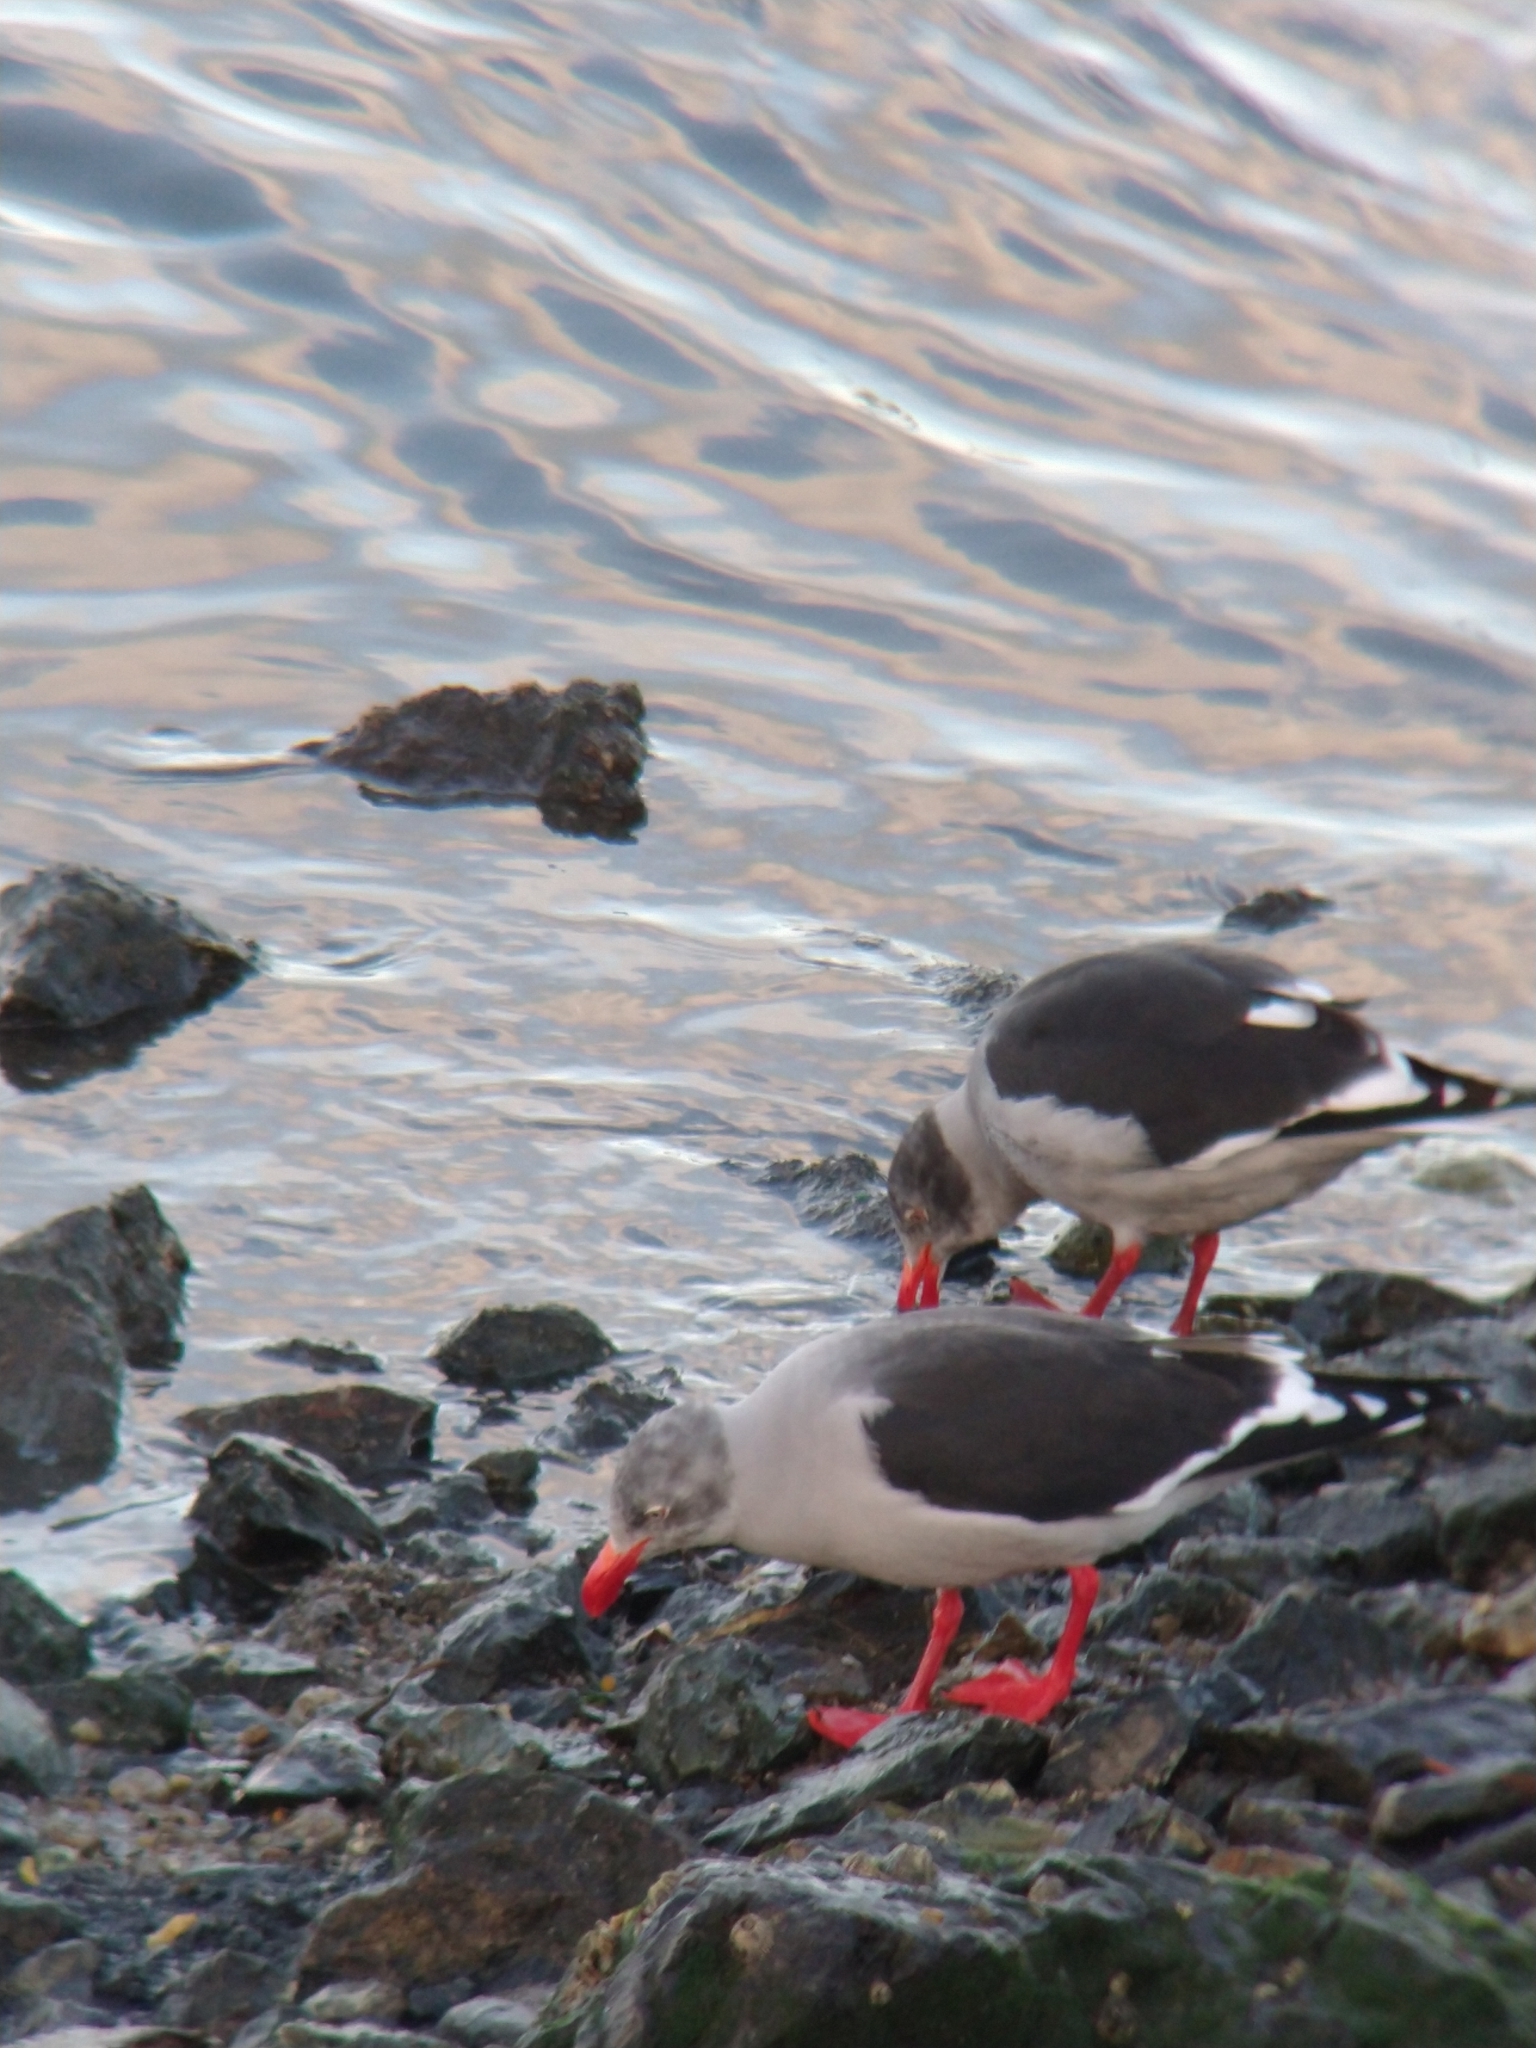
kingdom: Animalia
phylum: Chordata
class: Aves
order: Charadriiformes
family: Laridae
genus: Leucophaeus
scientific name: Leucophaeus scoresbii
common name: Dolphin gull
